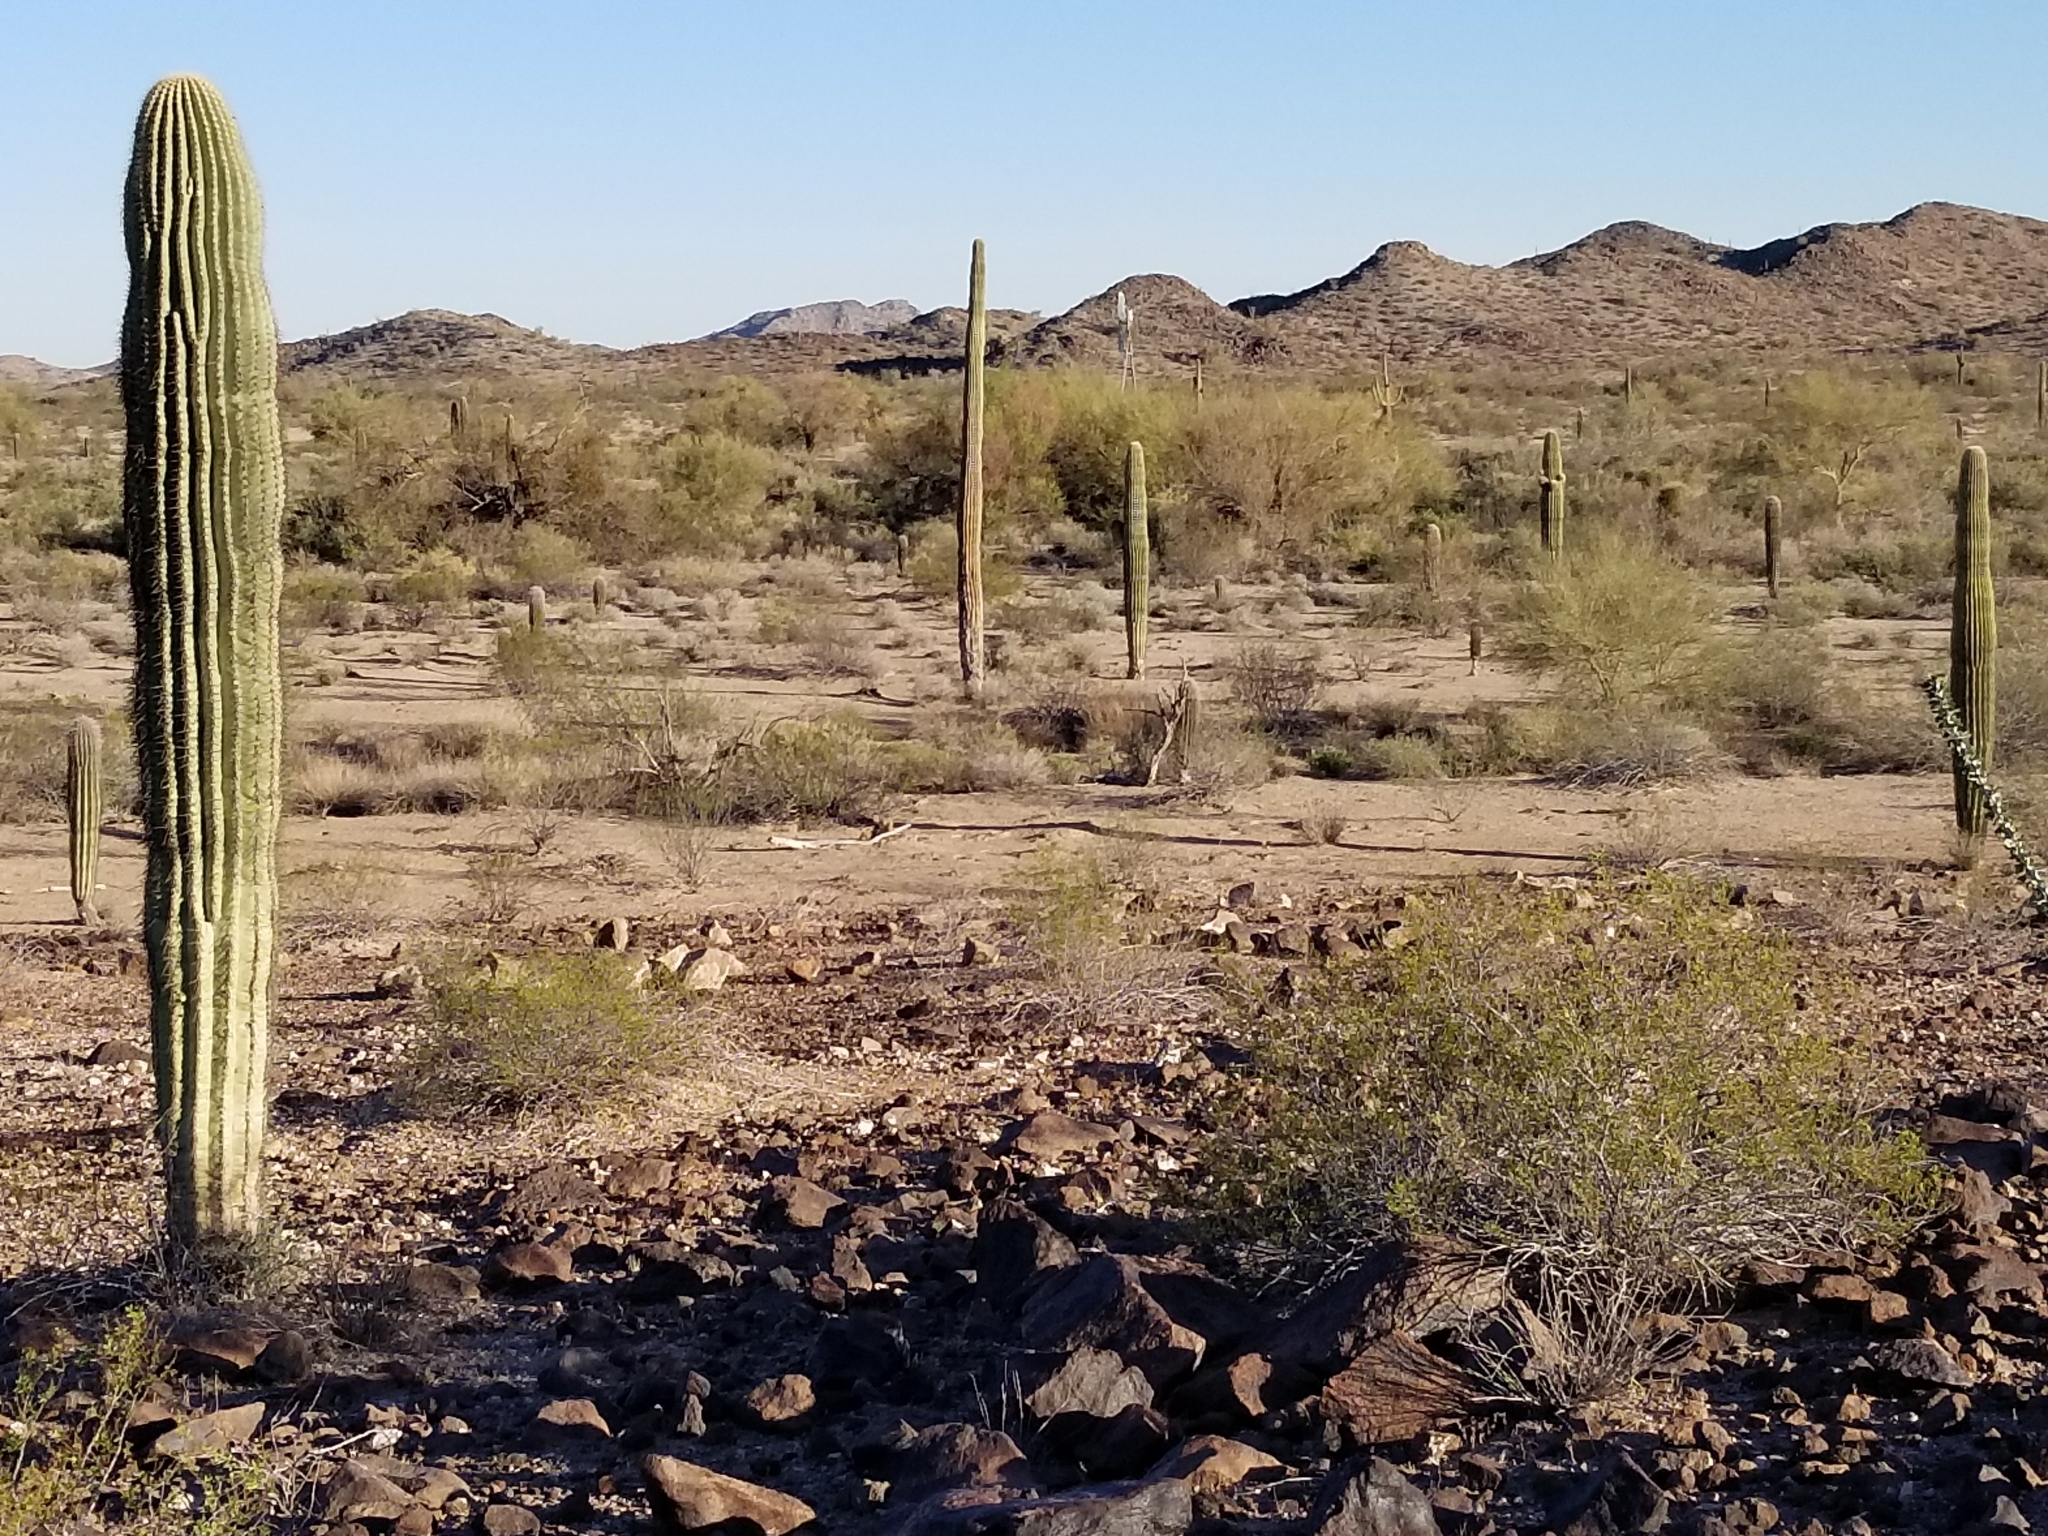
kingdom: Plantae
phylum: Tracheophyta
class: Magnoliopsida
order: Caryophyllales
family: Cactaceae
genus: Carnegiea
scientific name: Carnegiea gigantea
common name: Saguaro
